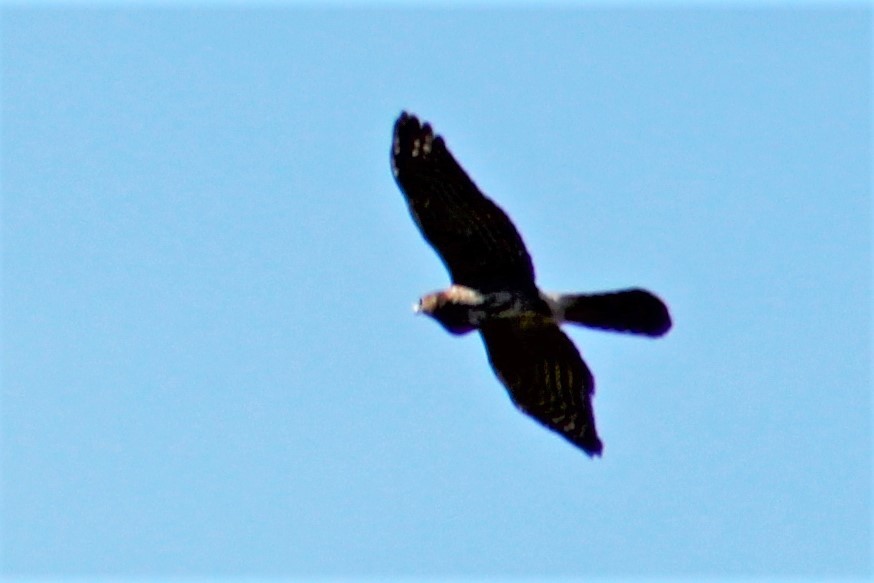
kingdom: Animalia
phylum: Chordata
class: Aves
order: Accipitriformes
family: Accipitridae
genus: Accipiter
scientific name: Accipiter cooperii
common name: Cooper's hawk
